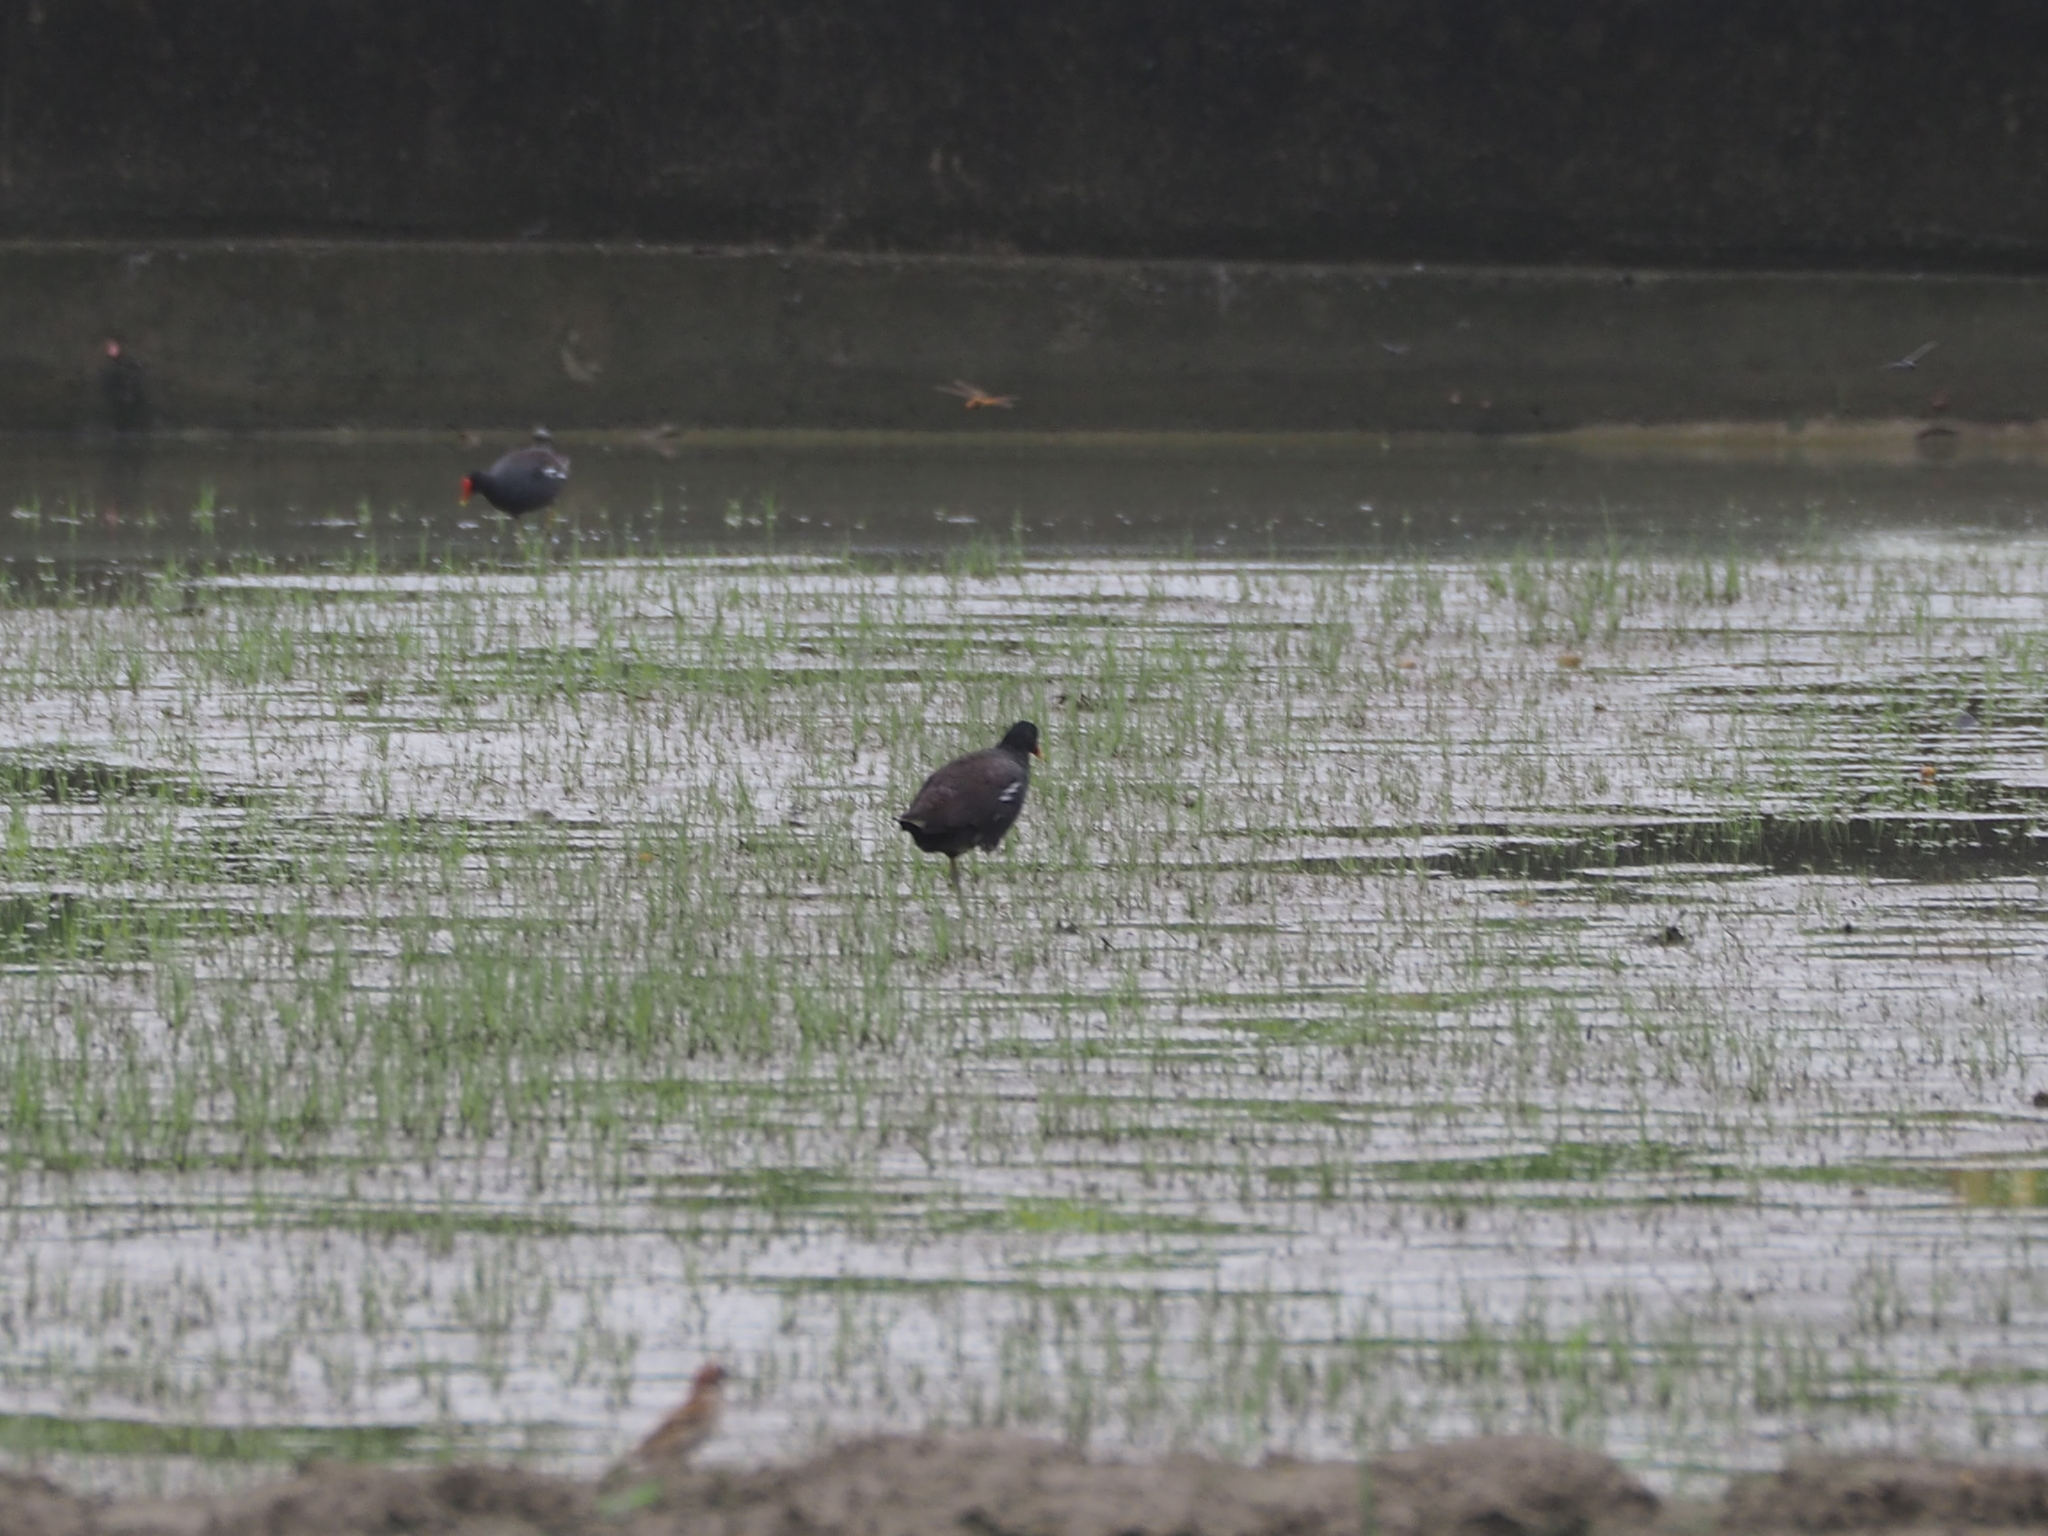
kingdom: Animalia
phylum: Chordata
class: Aves
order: Gruiformes
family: Rallidae
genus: Gallinula
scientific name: Gallinula chloropus
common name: Common moorhen
